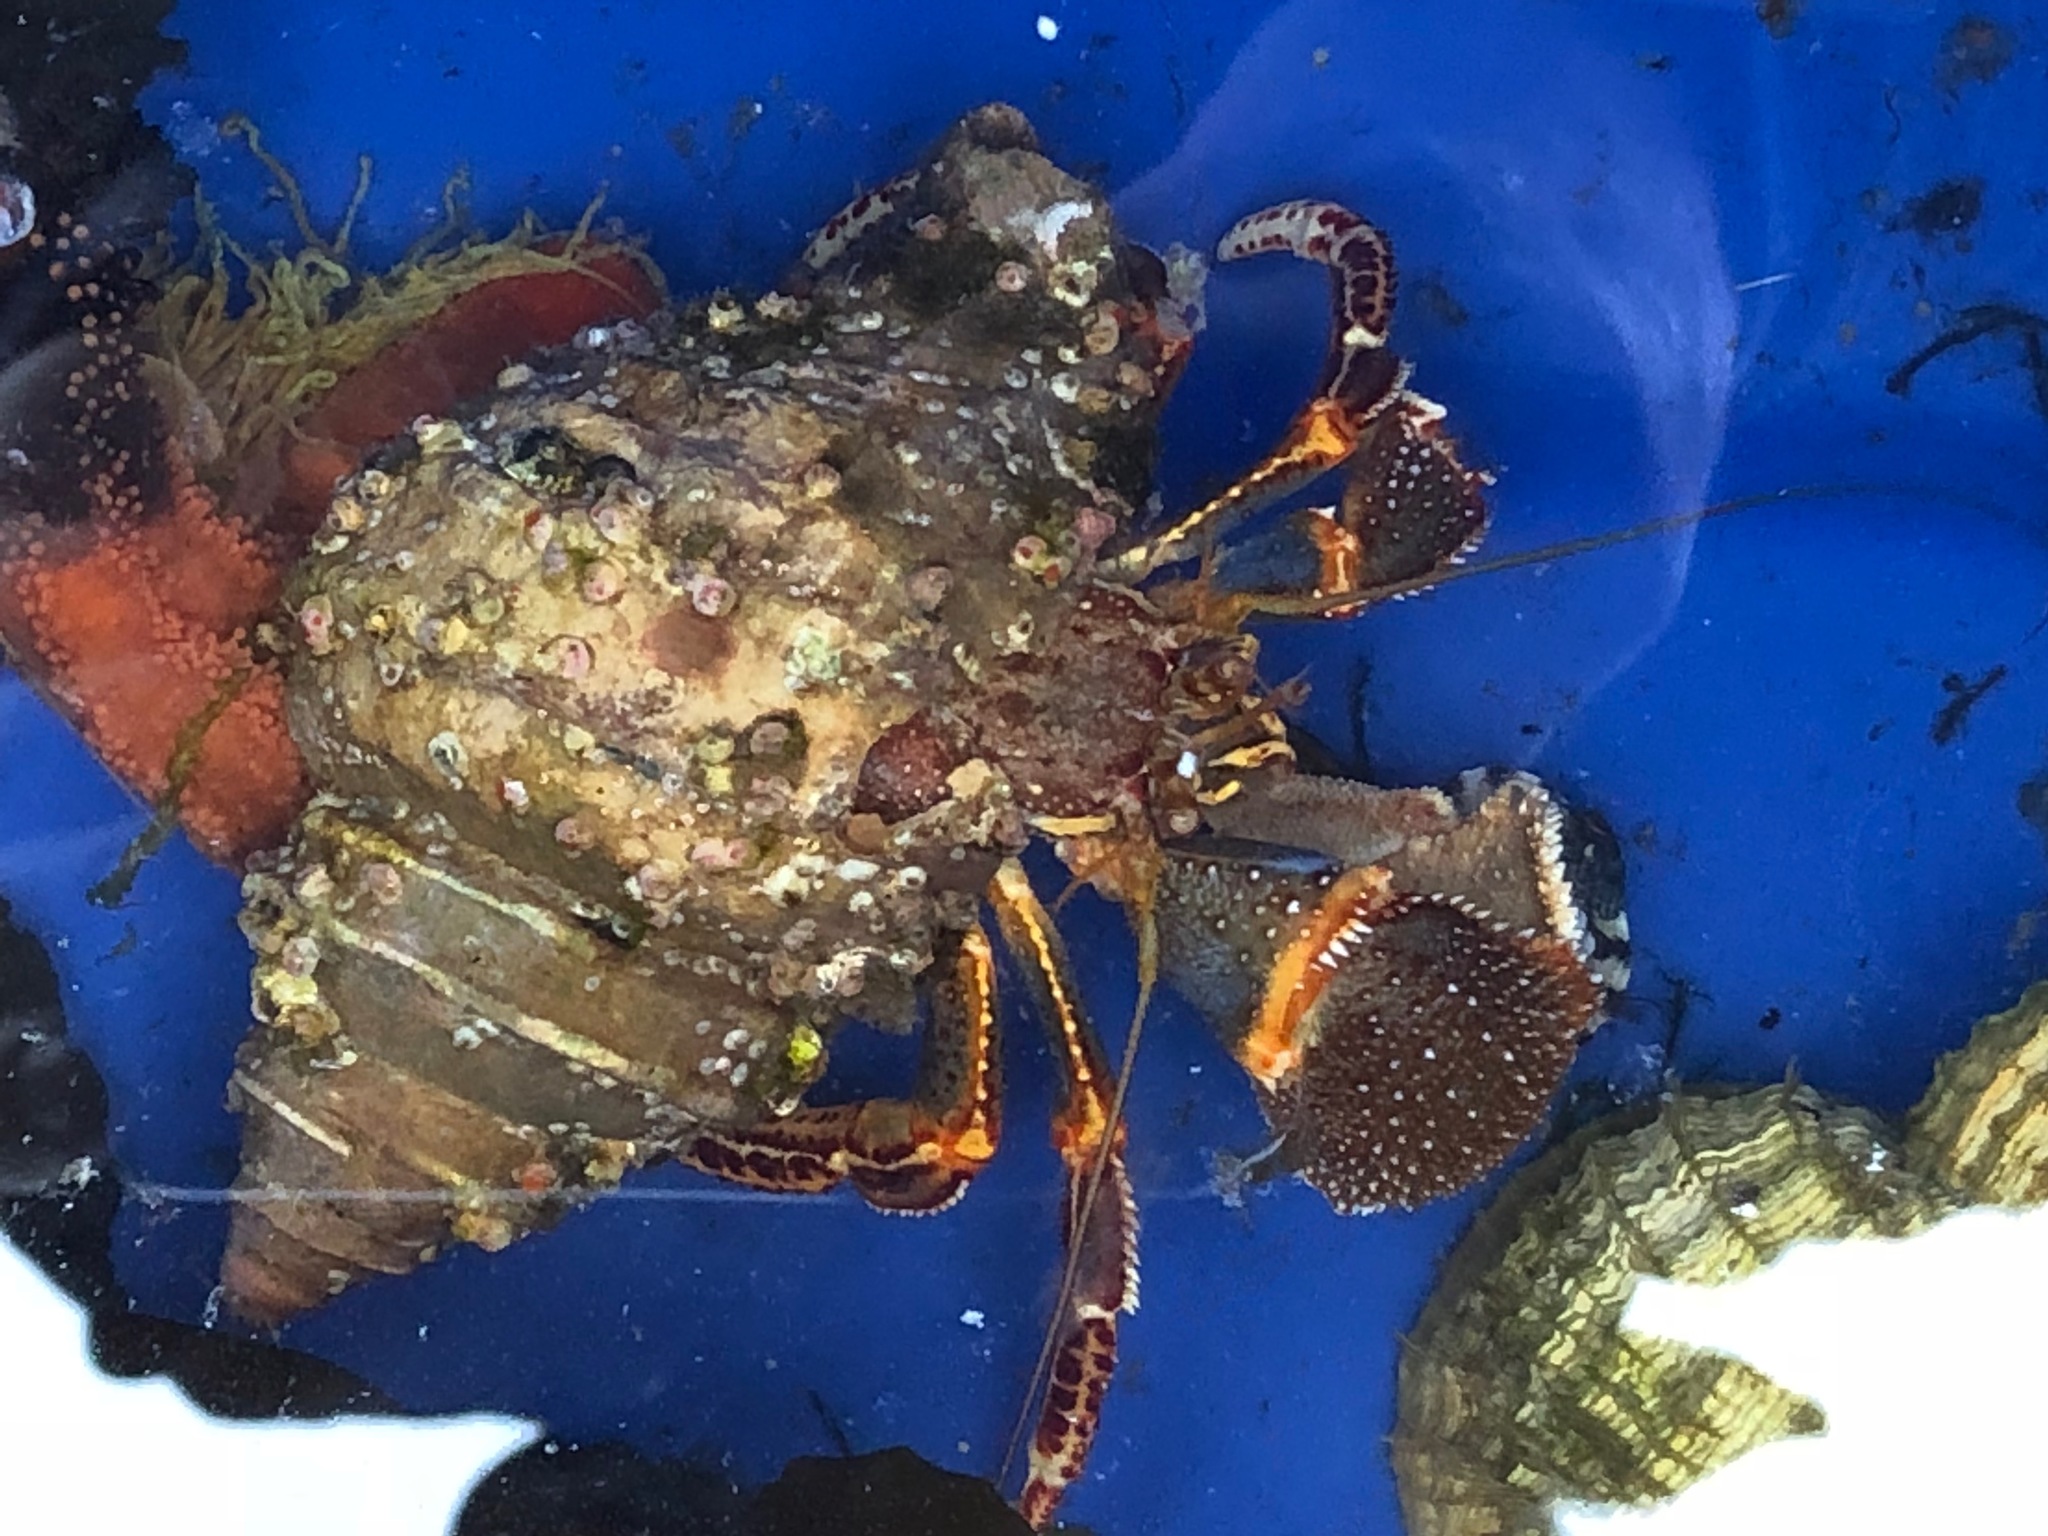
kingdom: Animalia
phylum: Arthropoda
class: Malacostraca
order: Decapoda
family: Paguridae
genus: Elassochirus
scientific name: Elassochirus tenuimanus
